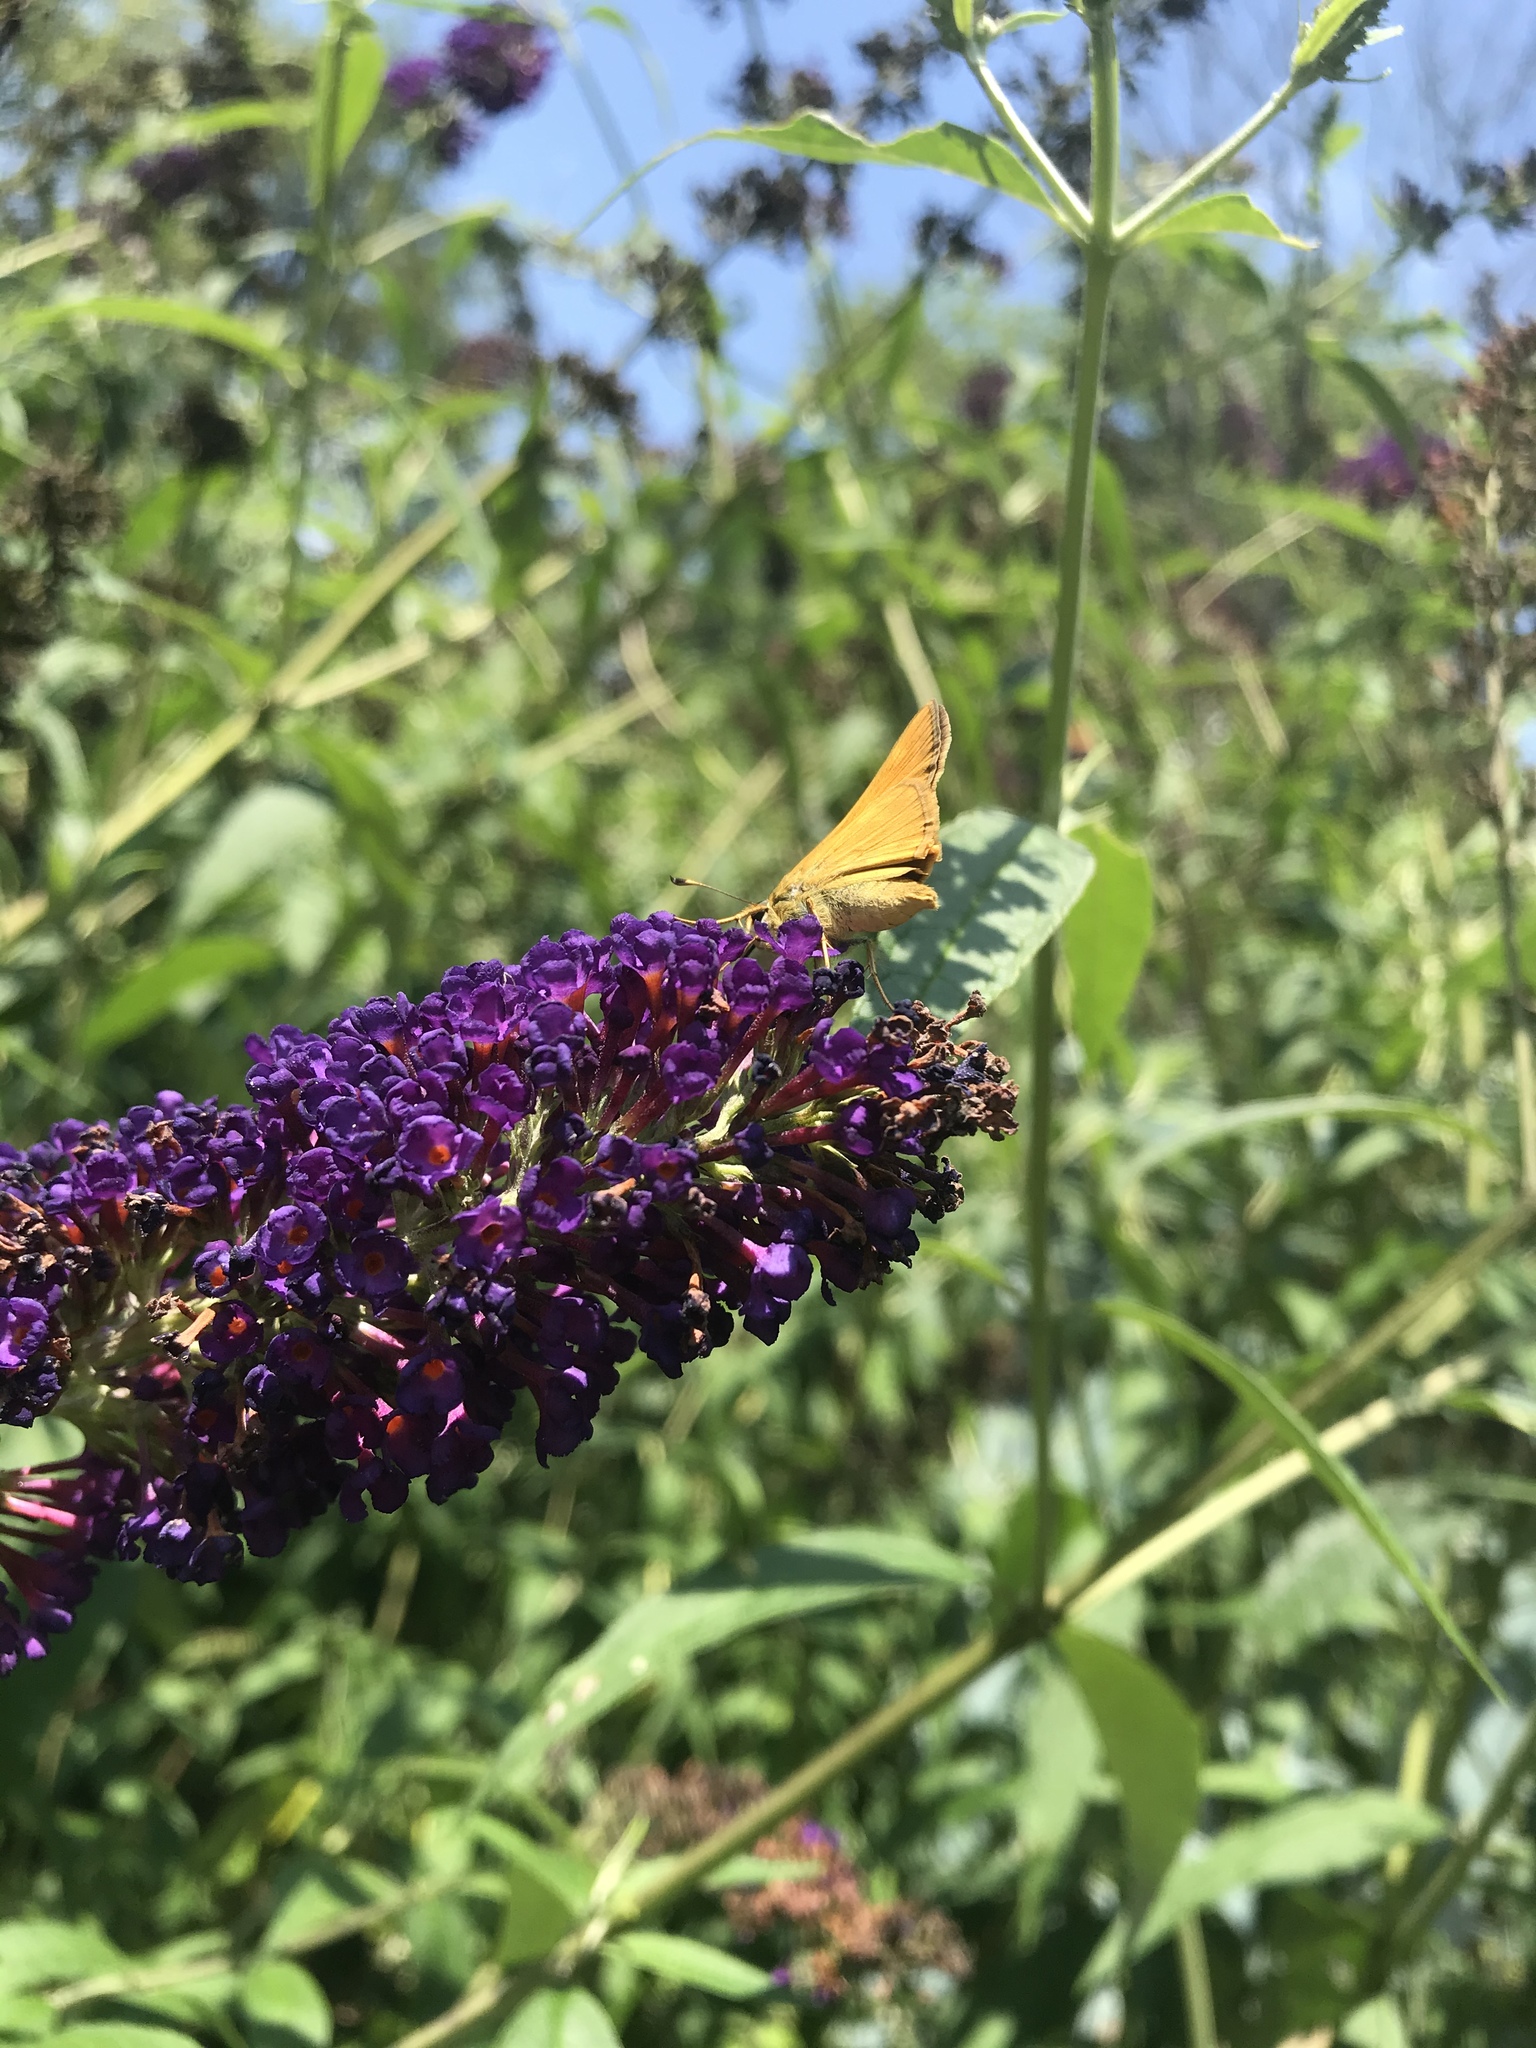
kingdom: Animalia
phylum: Arthropoda
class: Insecta
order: Lepidoptera
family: Hesperiidae
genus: Atalopedes
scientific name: Atalopedes
